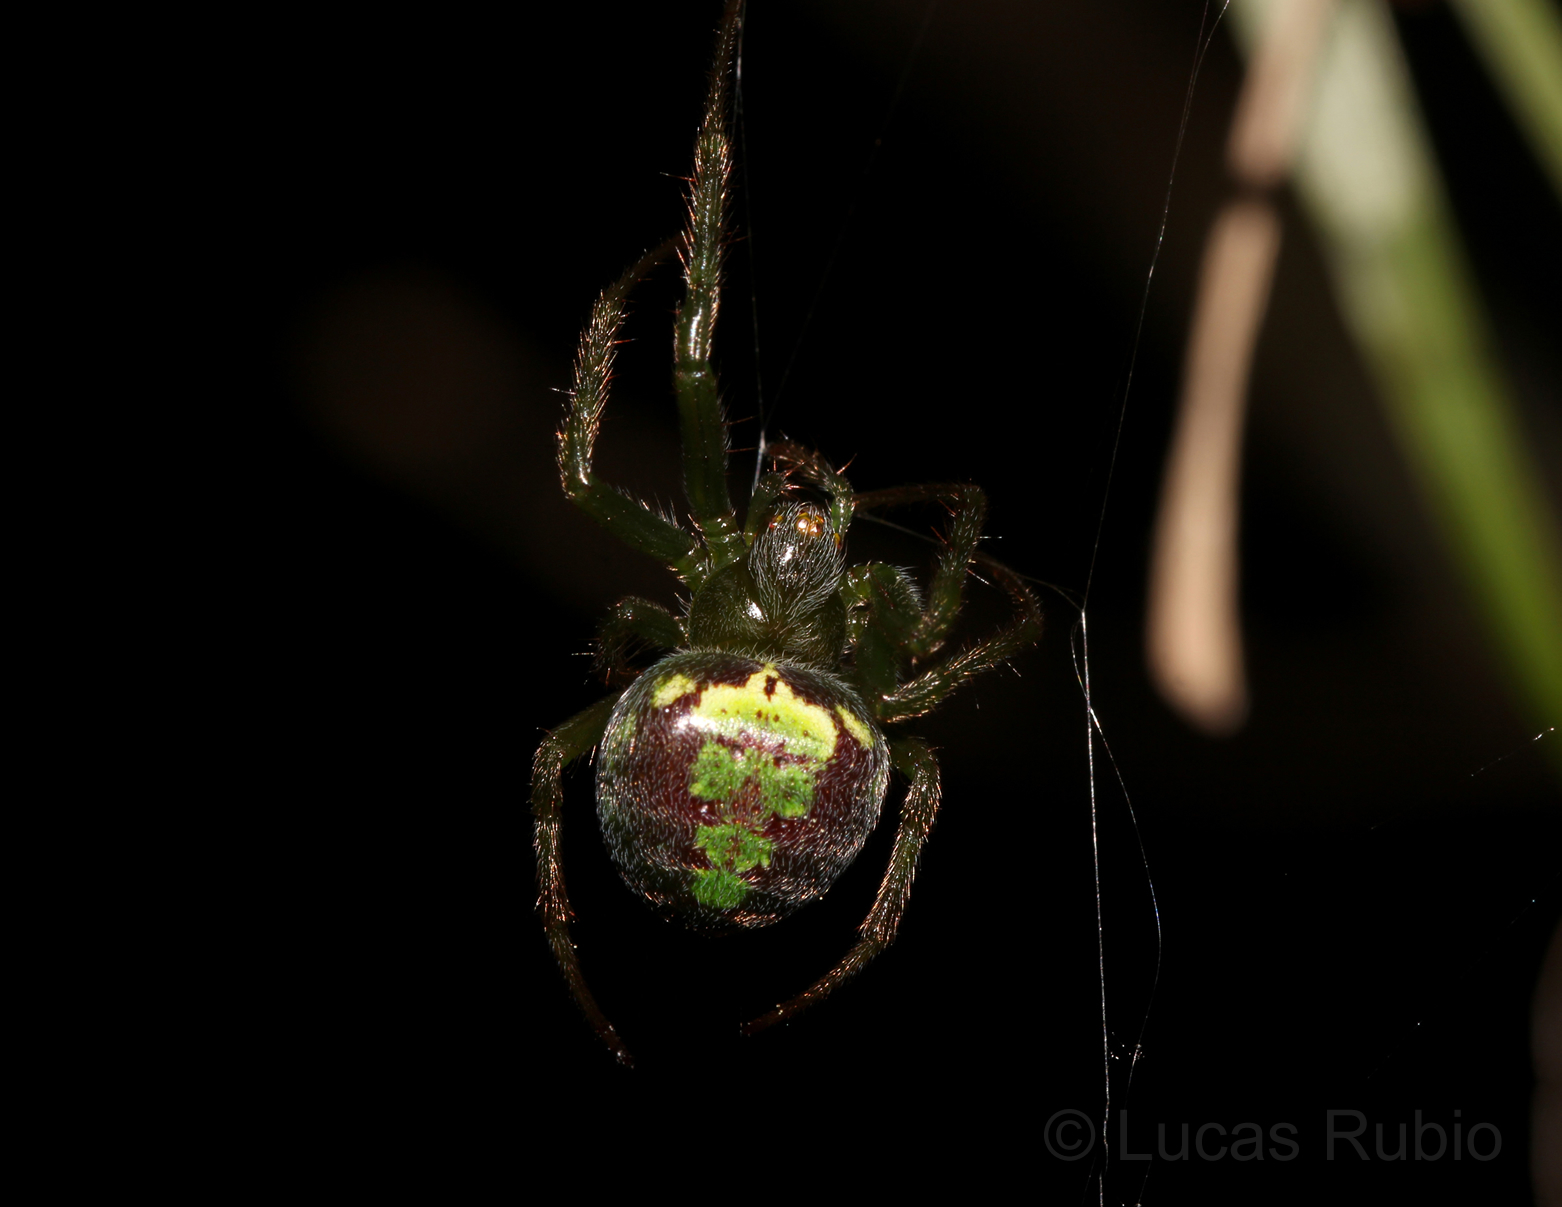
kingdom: Animalia
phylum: Arthropoda
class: Arachnida
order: Araneae
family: Araneidae
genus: Araneus
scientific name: Araneus unanimus
